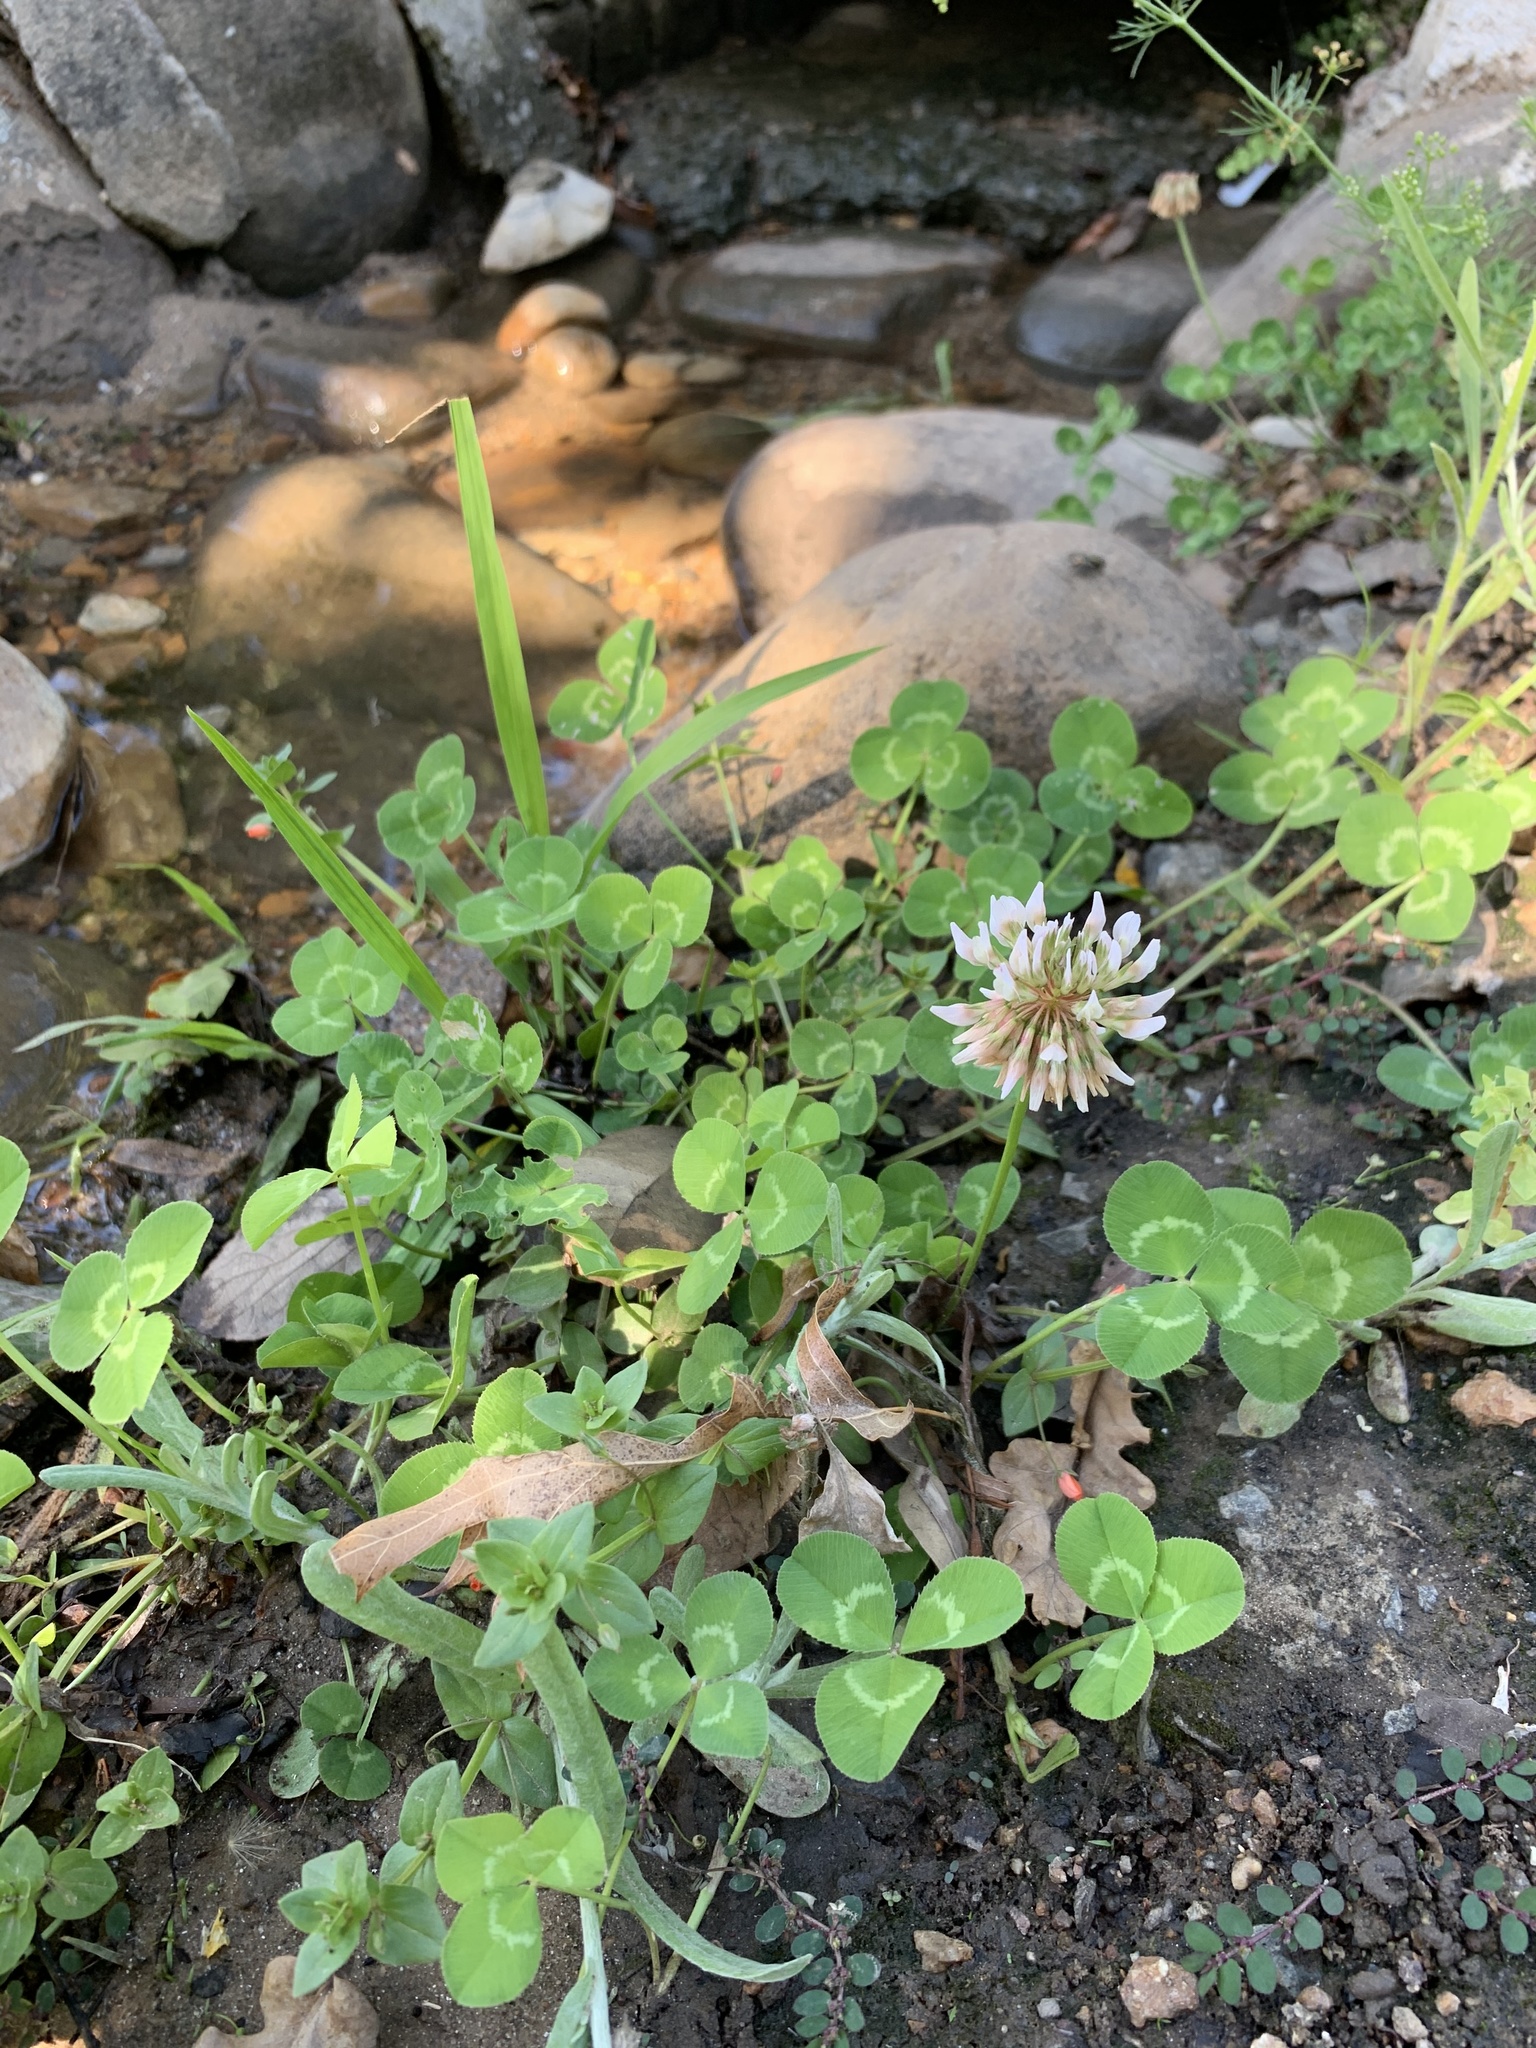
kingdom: Plantae
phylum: Tracheophyta
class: Magnoliopsida
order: Fabales
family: Fabaceae
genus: Trifolium
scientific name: Trifolium repens
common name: White clover
